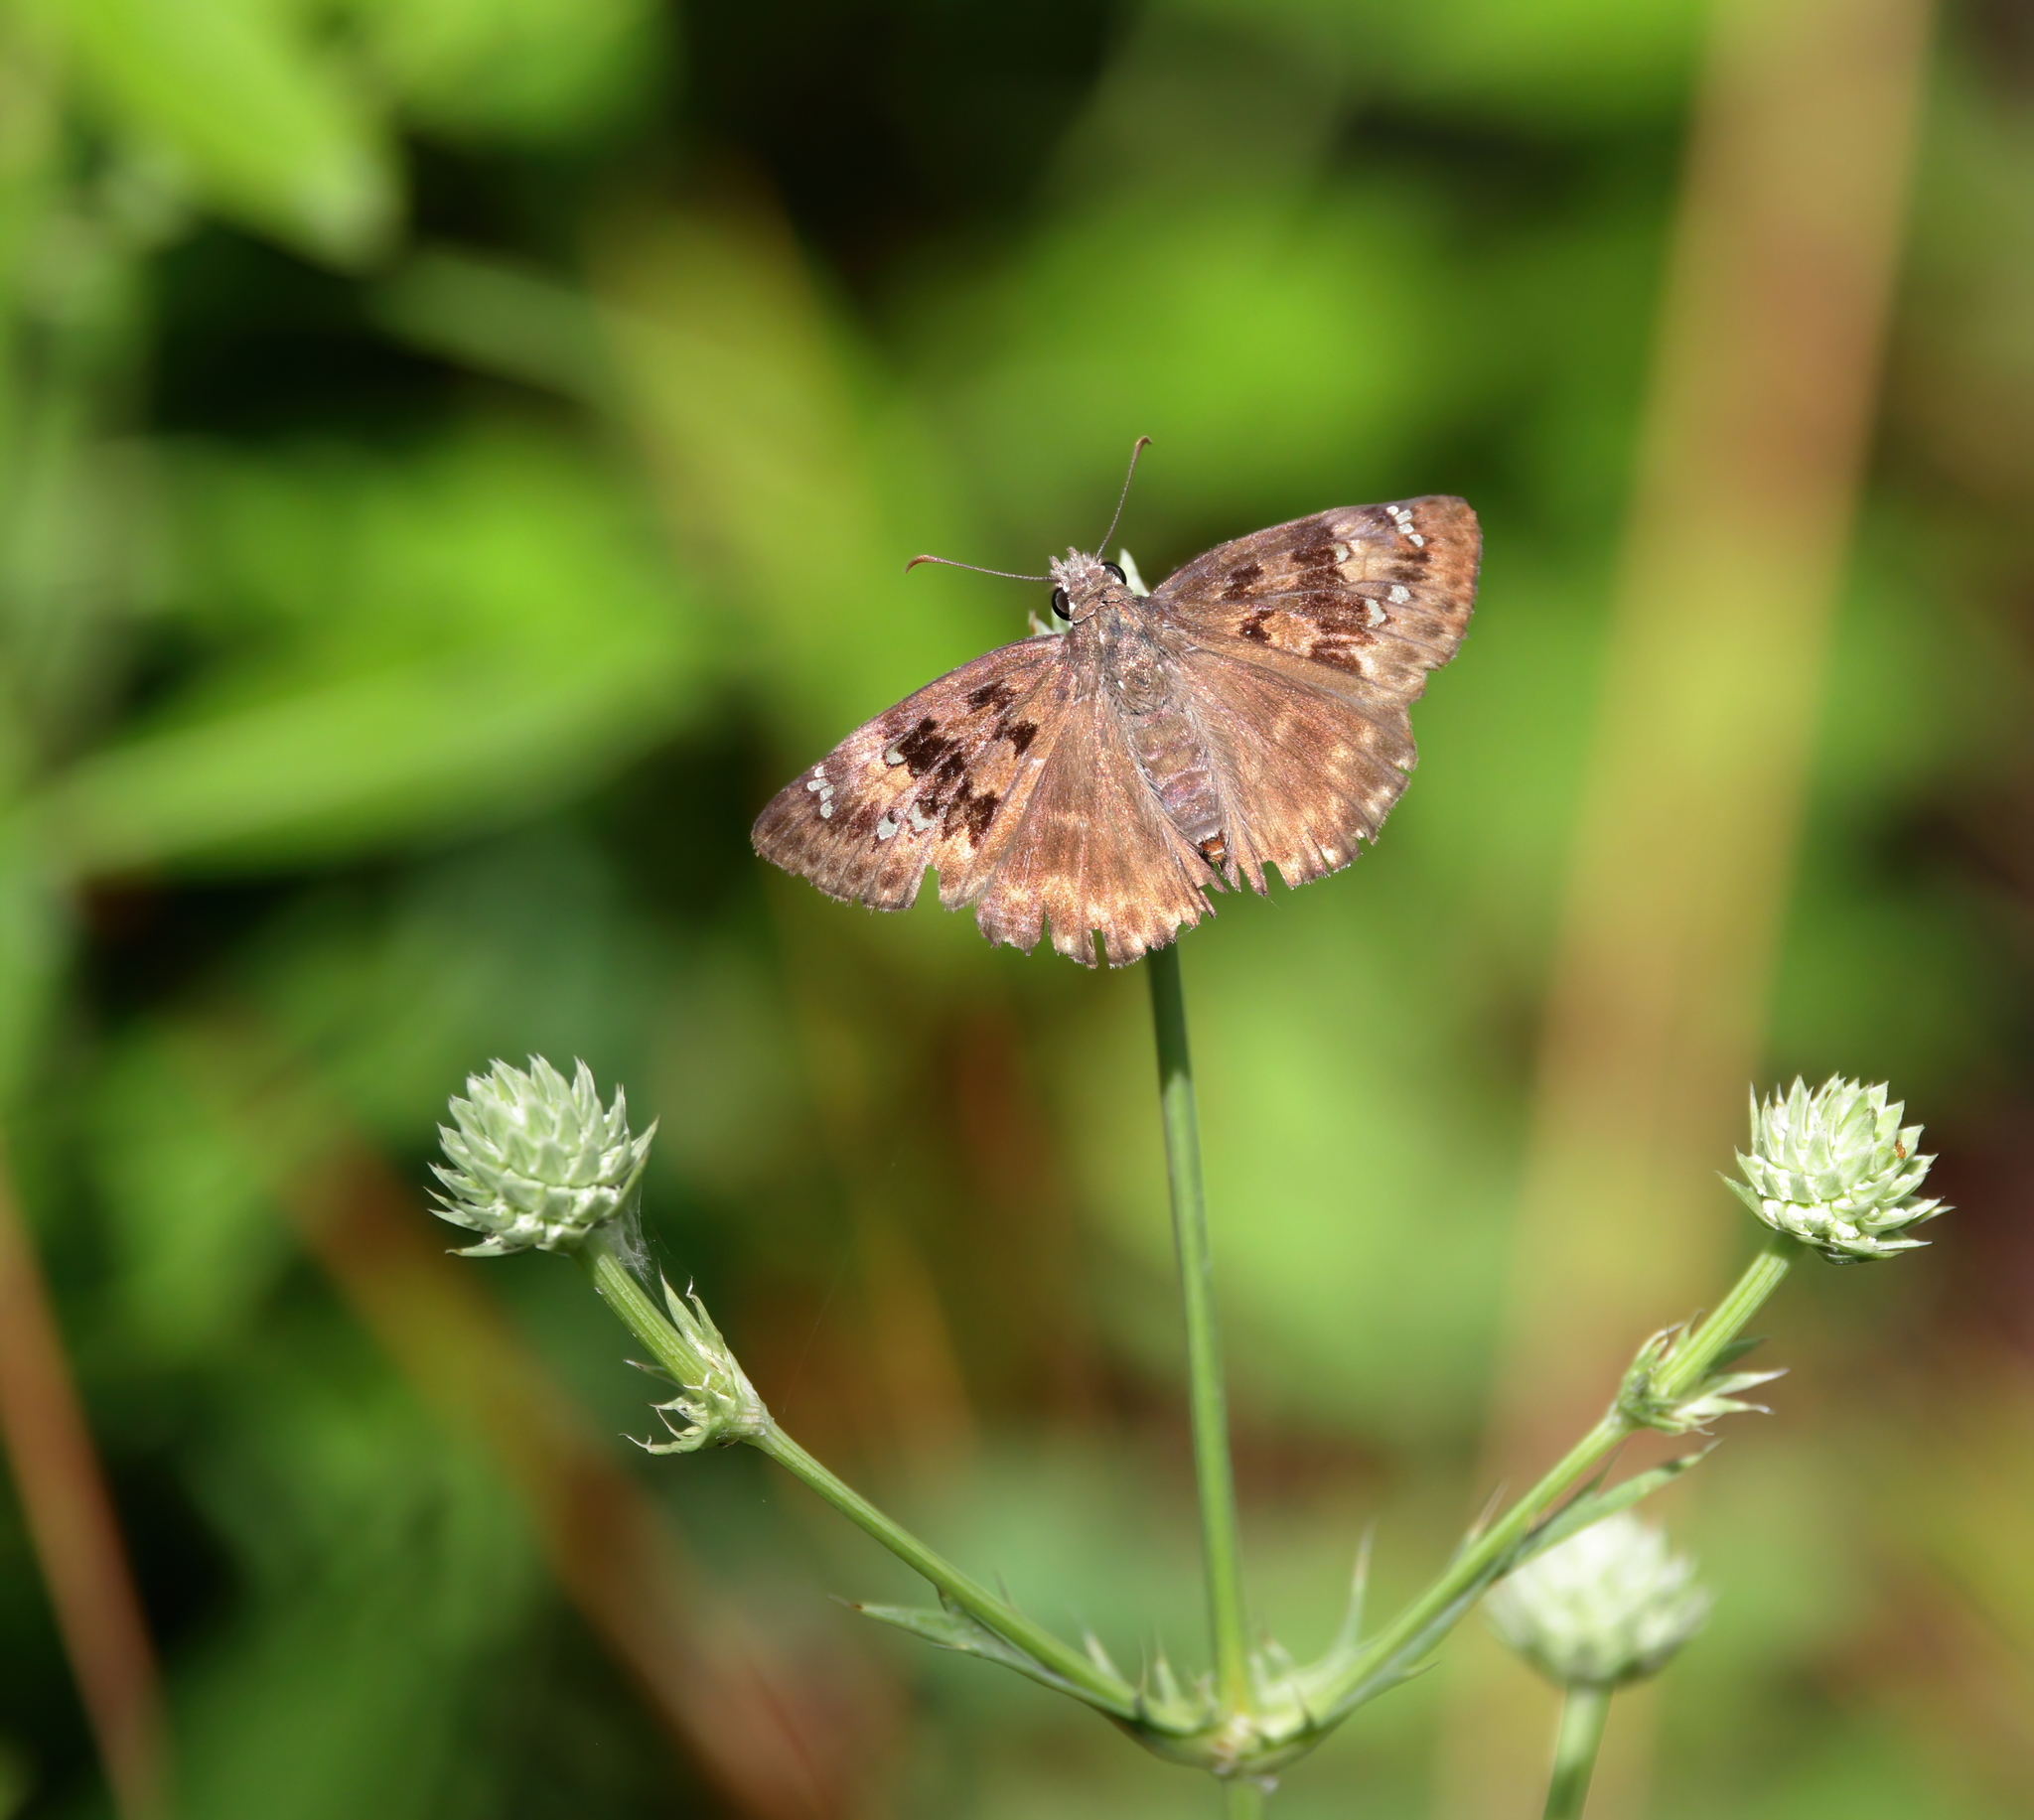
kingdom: Animalia
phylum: Arthropoda
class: Insecta
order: Lepidoptera
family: Hesperiidae
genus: Erynnis
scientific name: Erynnis horatius
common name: Horace's duskywing
